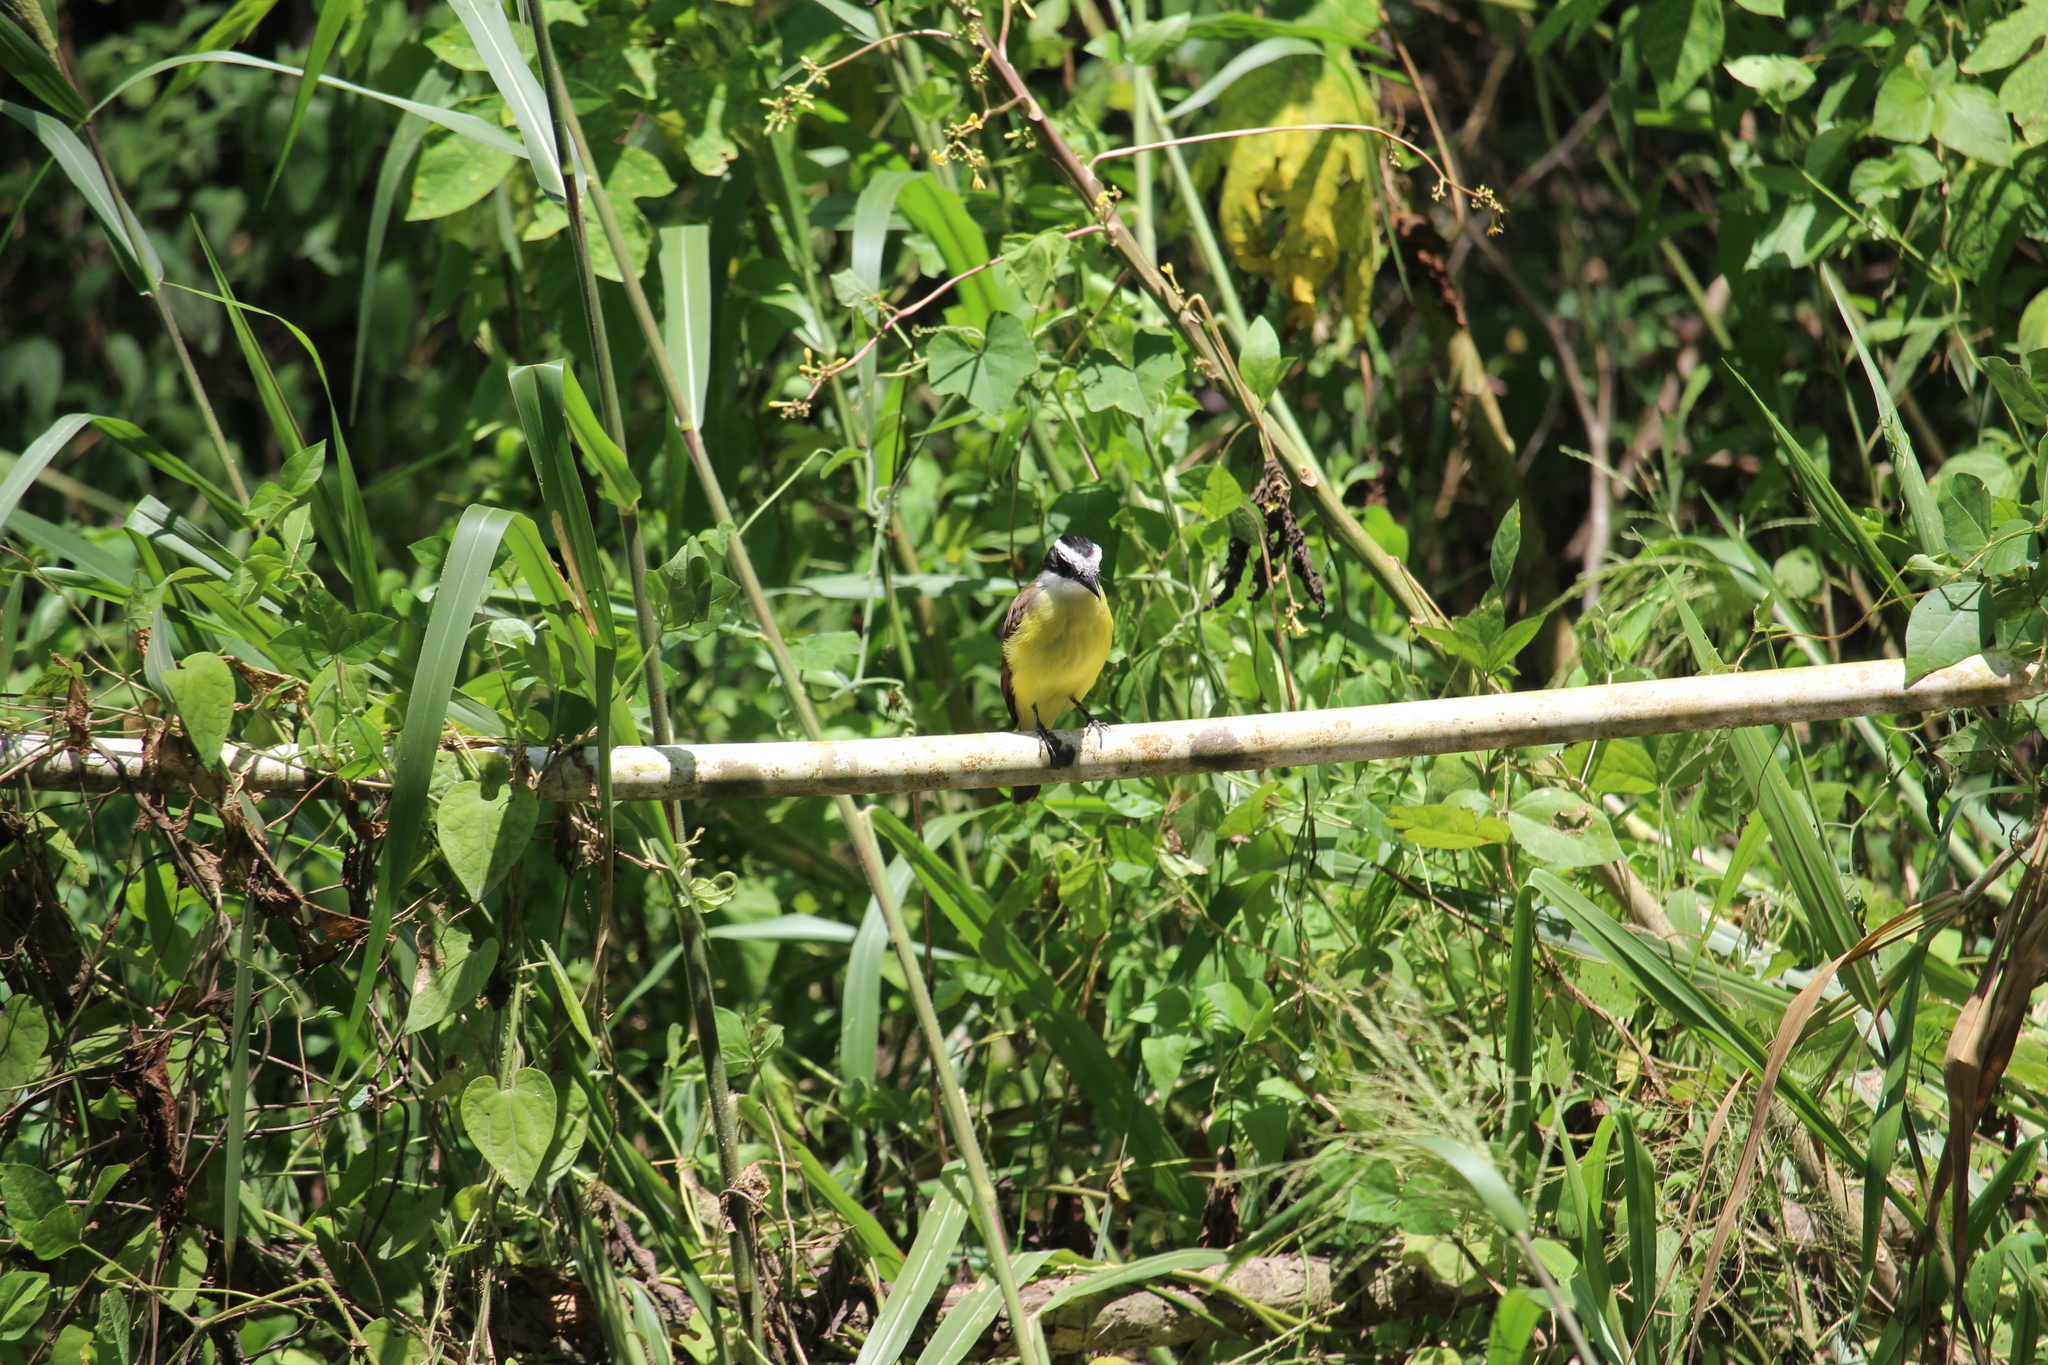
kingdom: Animalia
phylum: Chordata
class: Aves
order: Passeriformes
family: Tyrannidae
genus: Pitangus
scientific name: Pitangus sulphuratus
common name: Great kiskadee
